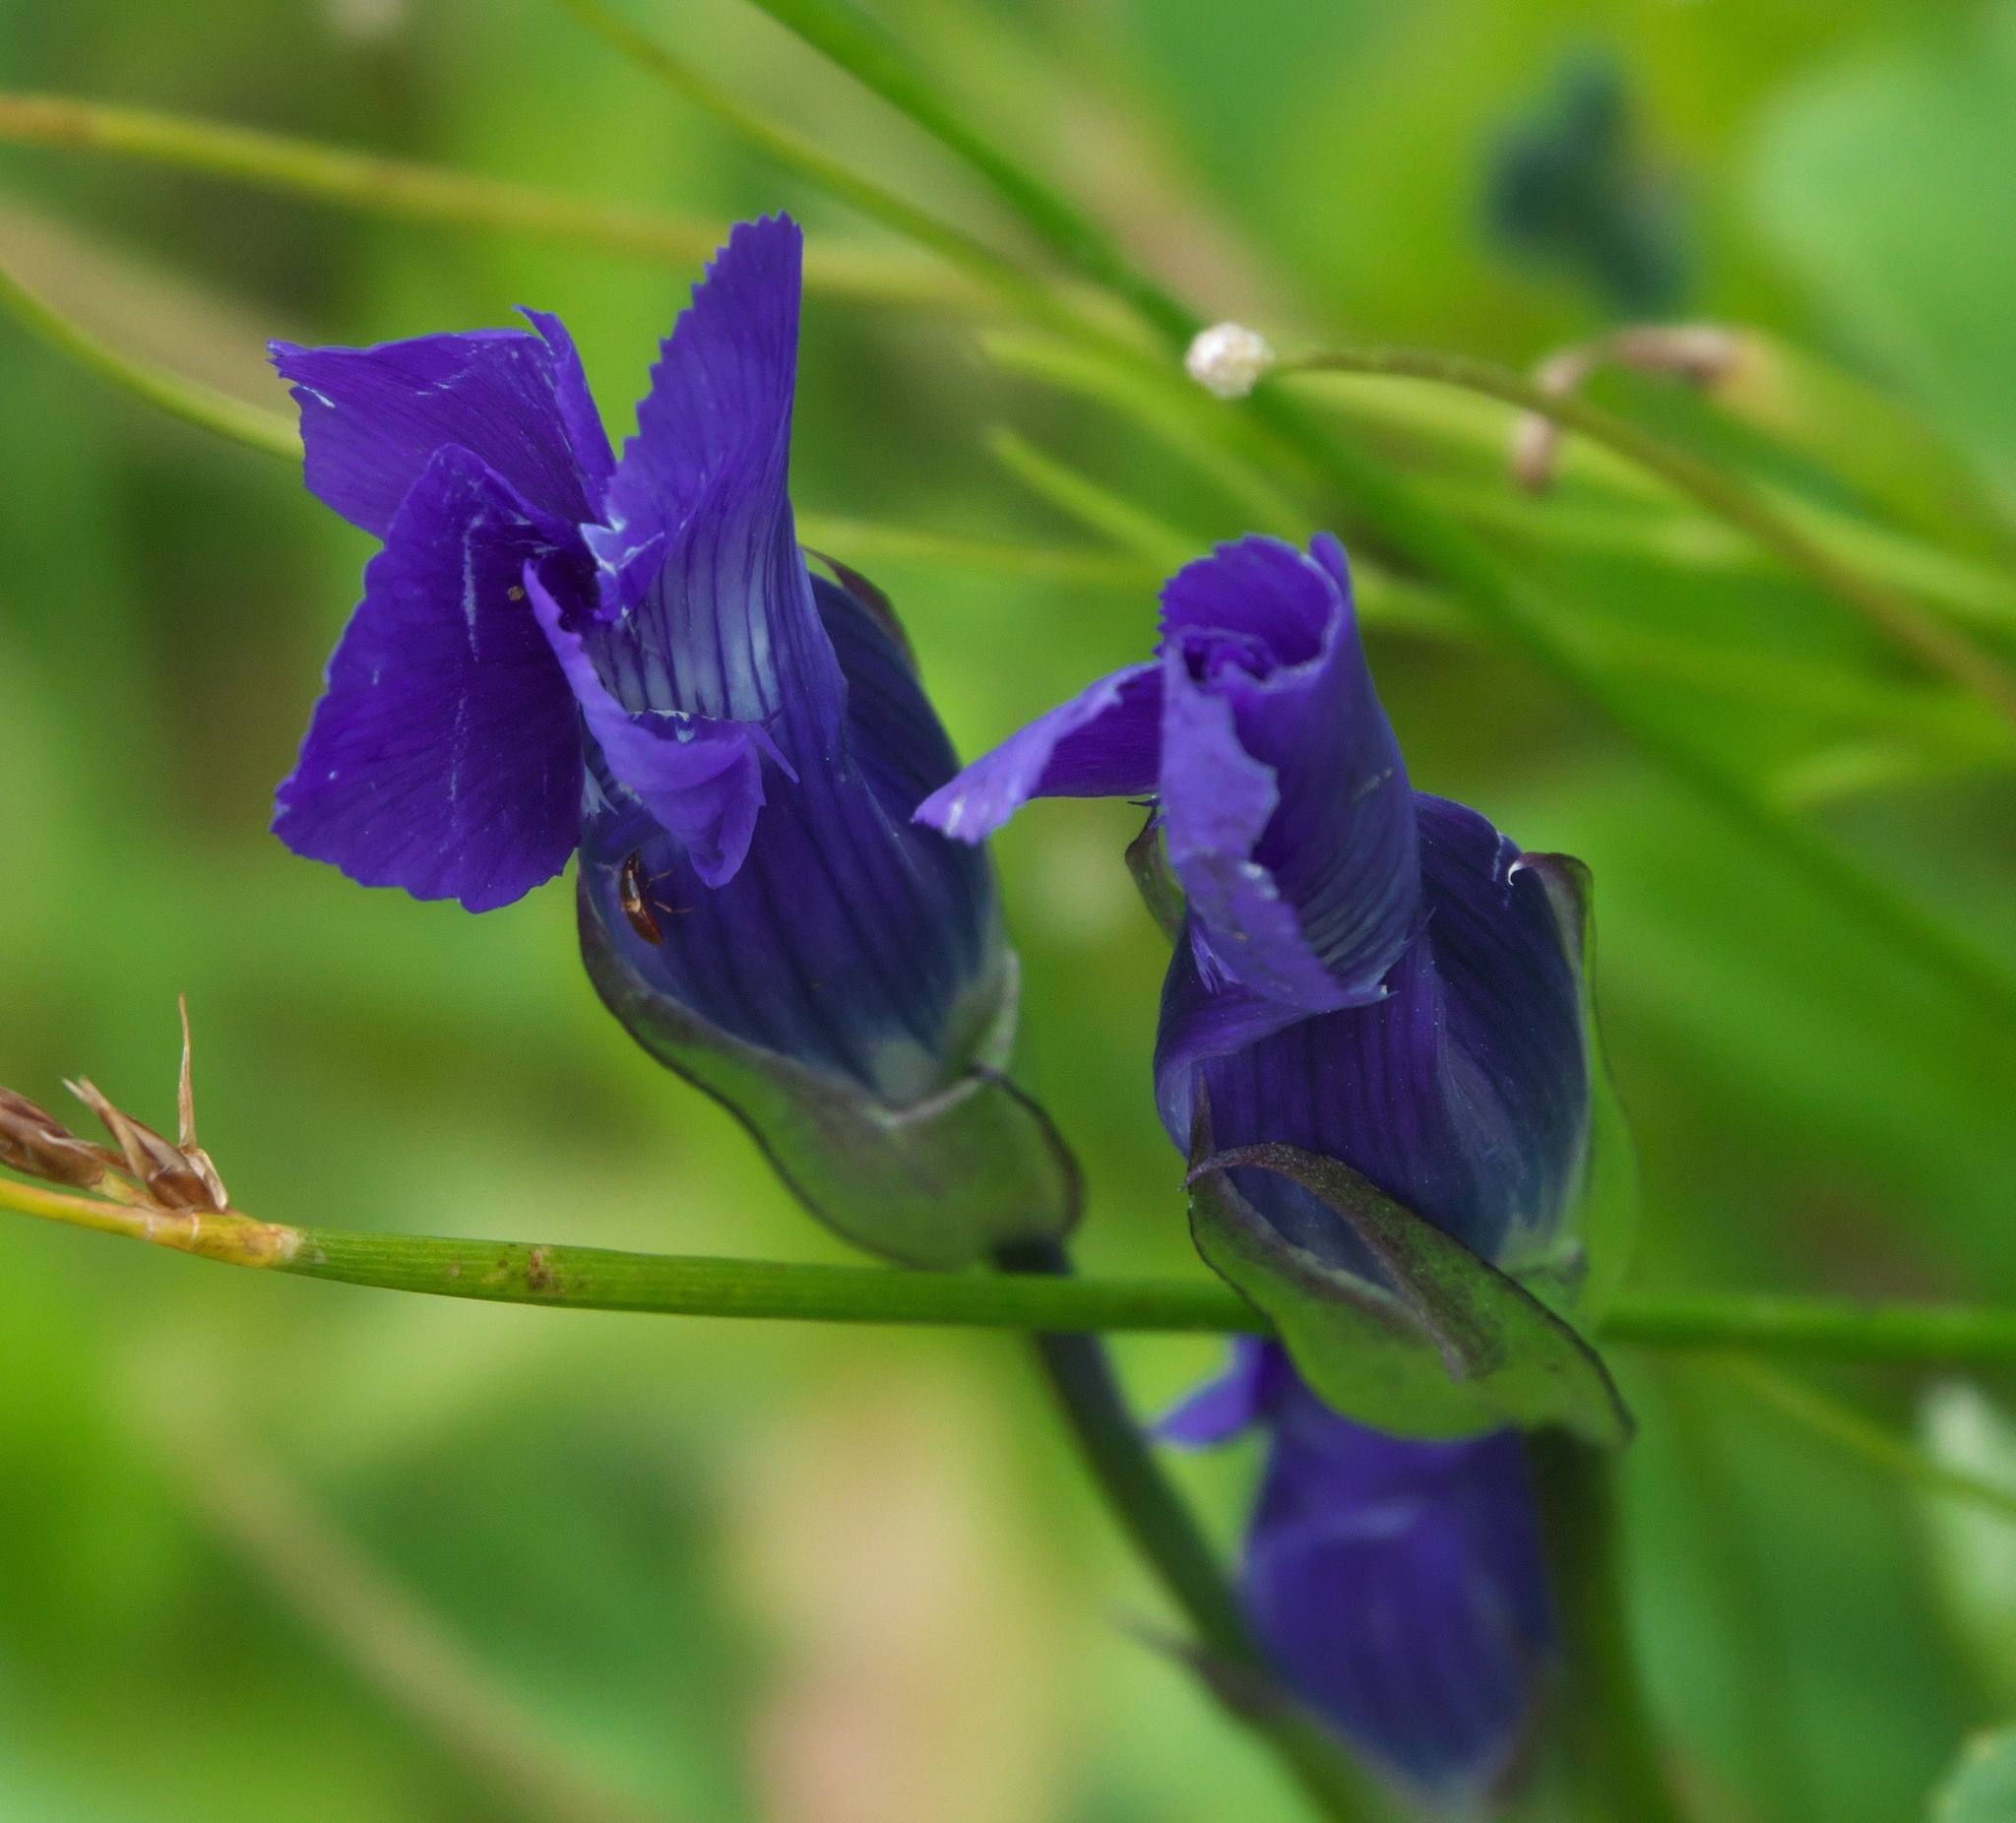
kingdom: Plantae
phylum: Tracheophyta
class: Magnoliopsida
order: Gentianales
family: Gentianaceae
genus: Gentianopsis
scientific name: Gentianopsis thermalis
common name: Rocky mountain fringed-gentian
